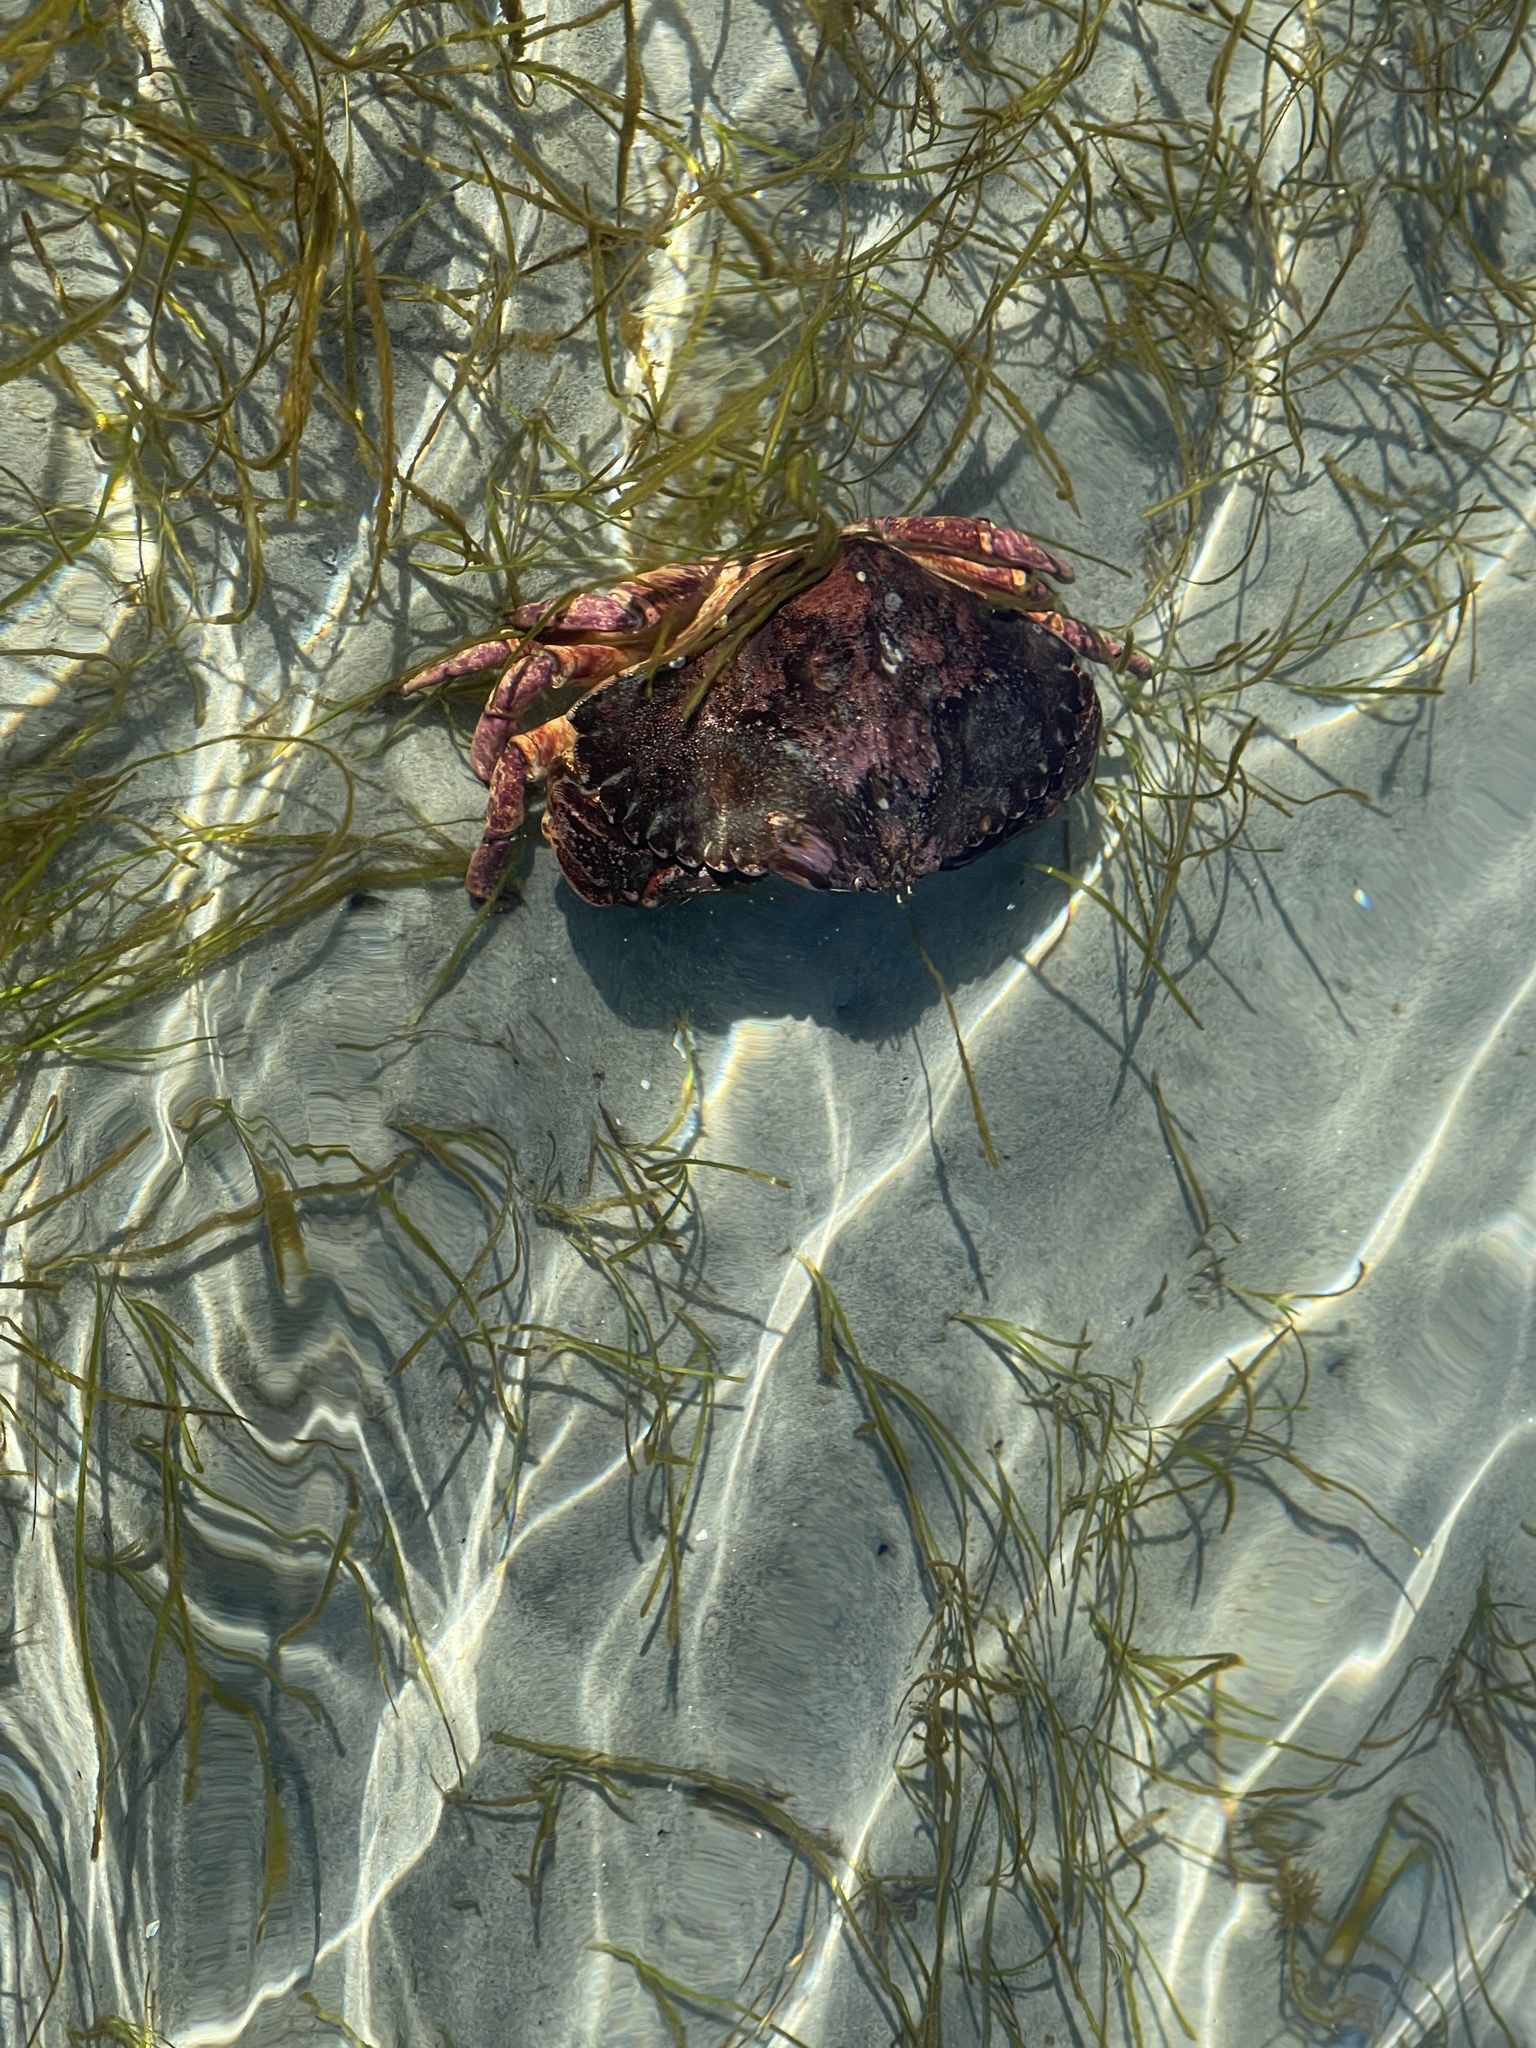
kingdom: Animalia
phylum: Arthropoda
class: Malacostraca
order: Decapoda
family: Cancridae
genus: Cancer
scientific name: Cancer productus
